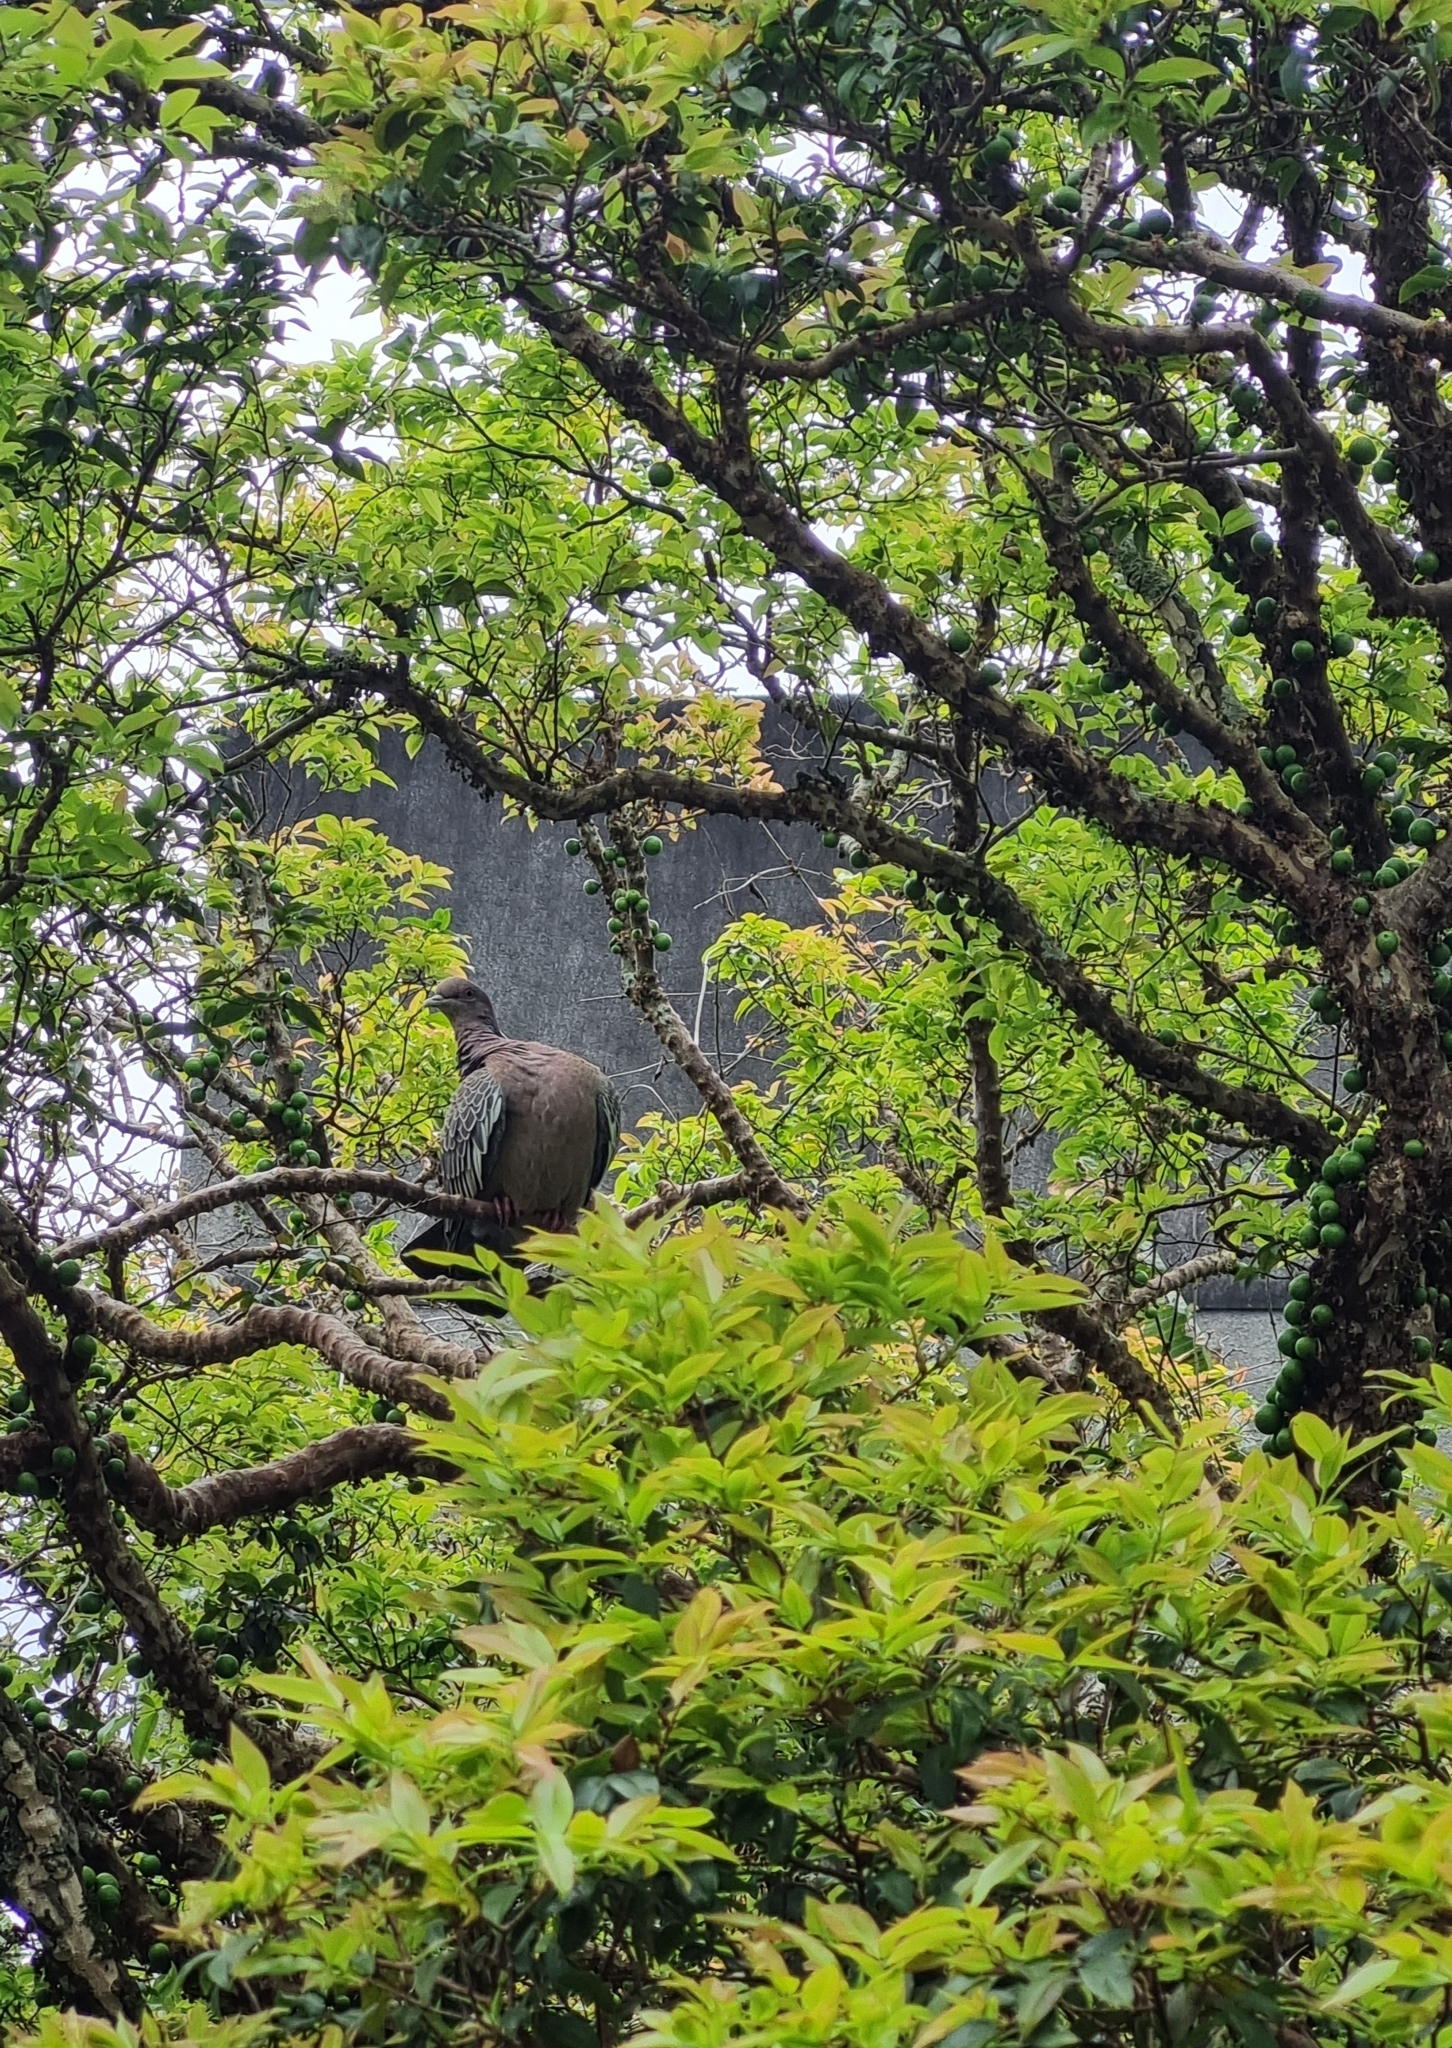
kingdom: Animalia
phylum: Chordata
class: Aves
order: Columbiformes
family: Columbidae
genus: Patagioenas
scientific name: Patagioenas picazuro
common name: Picazuro pigeon
